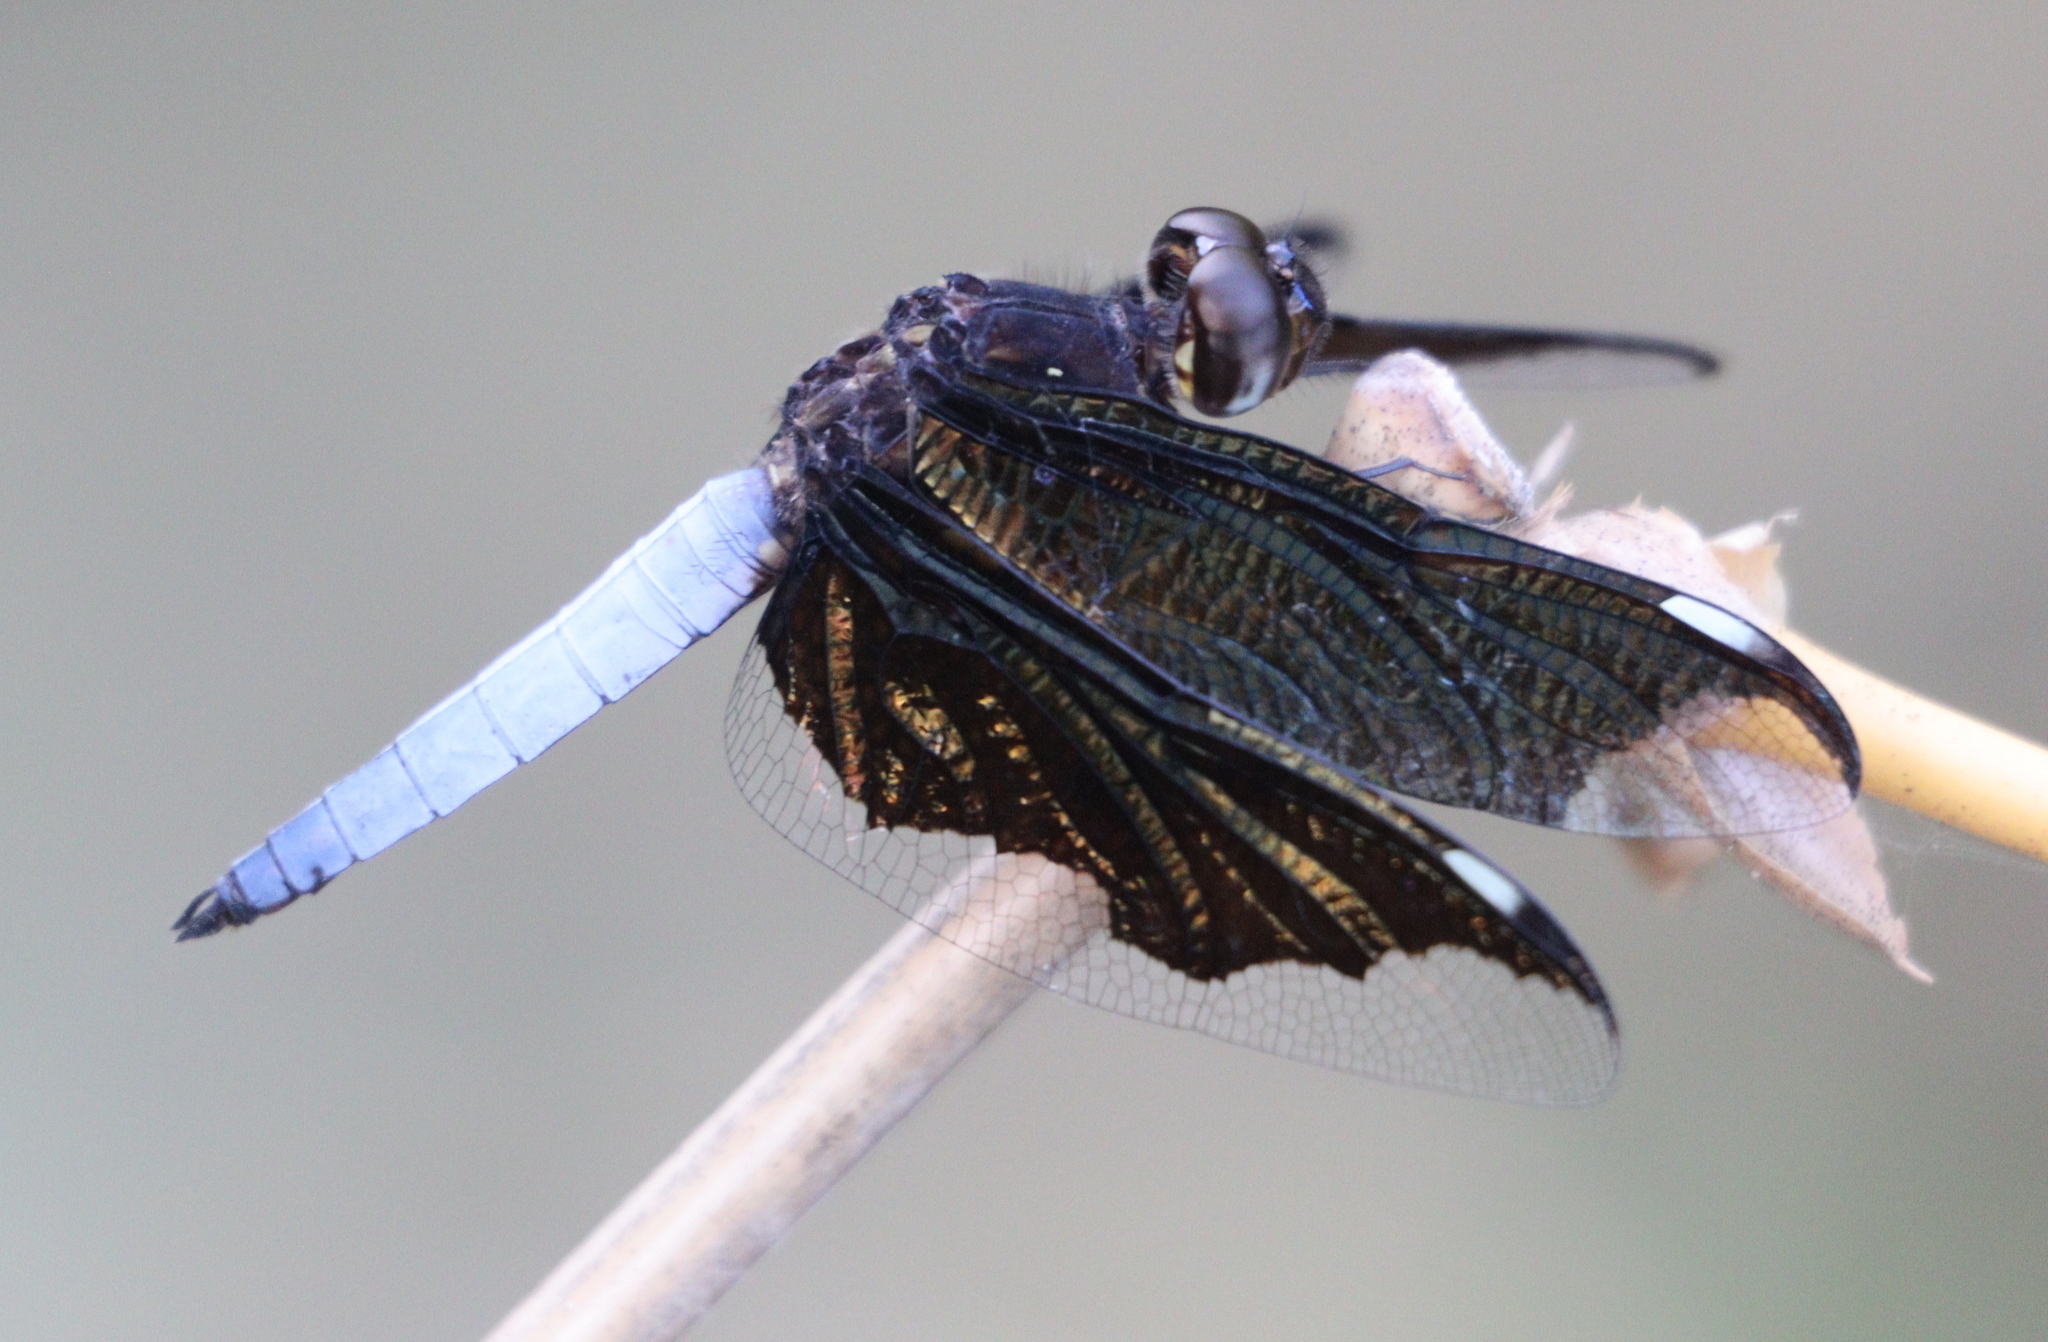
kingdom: Animalia
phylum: Arthropoda
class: Insecta
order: Odonata
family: Libellulidae
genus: Palpopleura
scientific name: Palpopleura lucia
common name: Lucia widow
